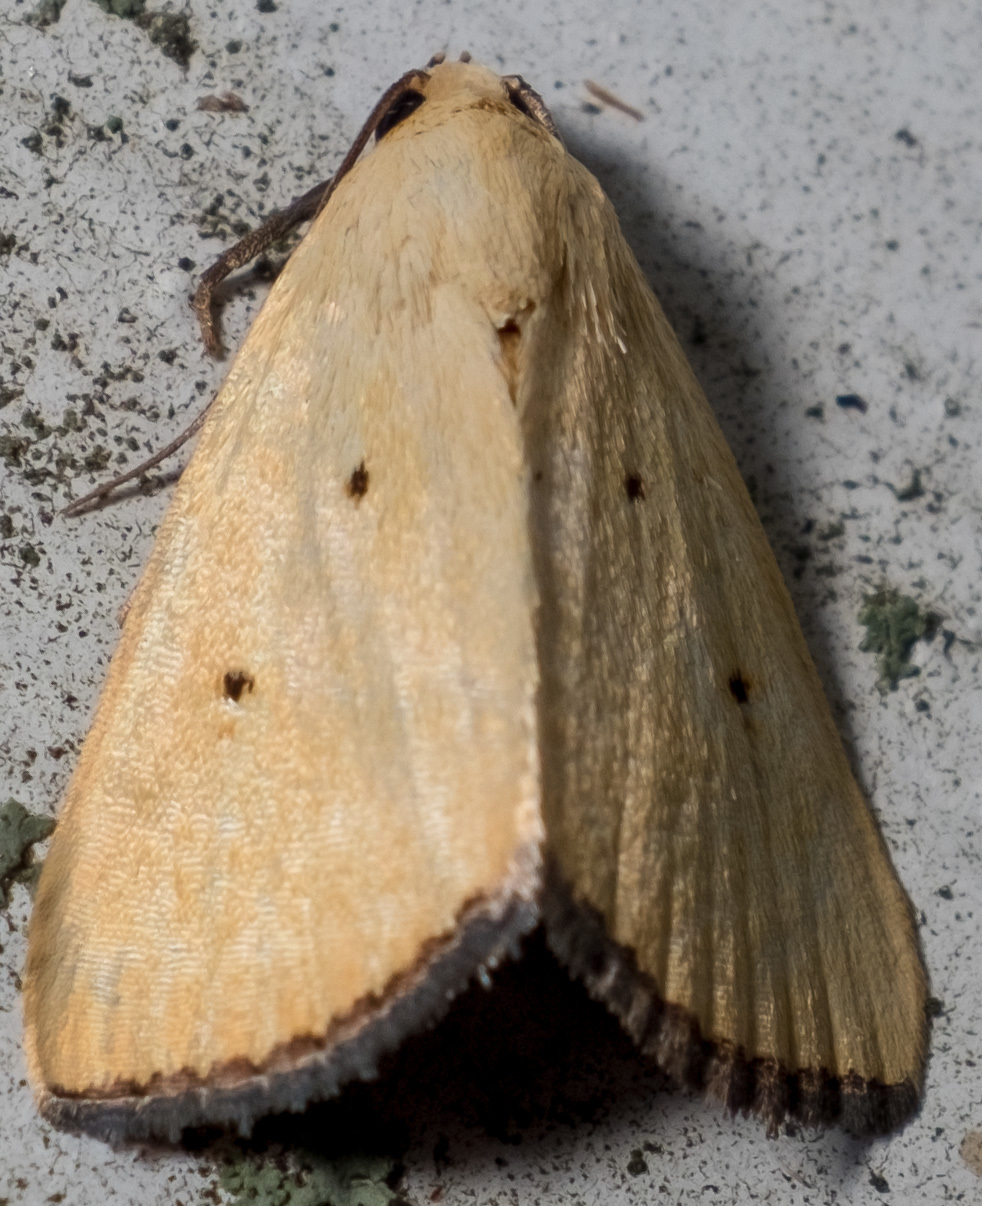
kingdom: Animalia
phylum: Arthropoda
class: Insecta
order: Lepidoptera
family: Noctuidae
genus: Marimatha
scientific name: Marimatha nigrofimbria
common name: Black-bordered lemon moth
